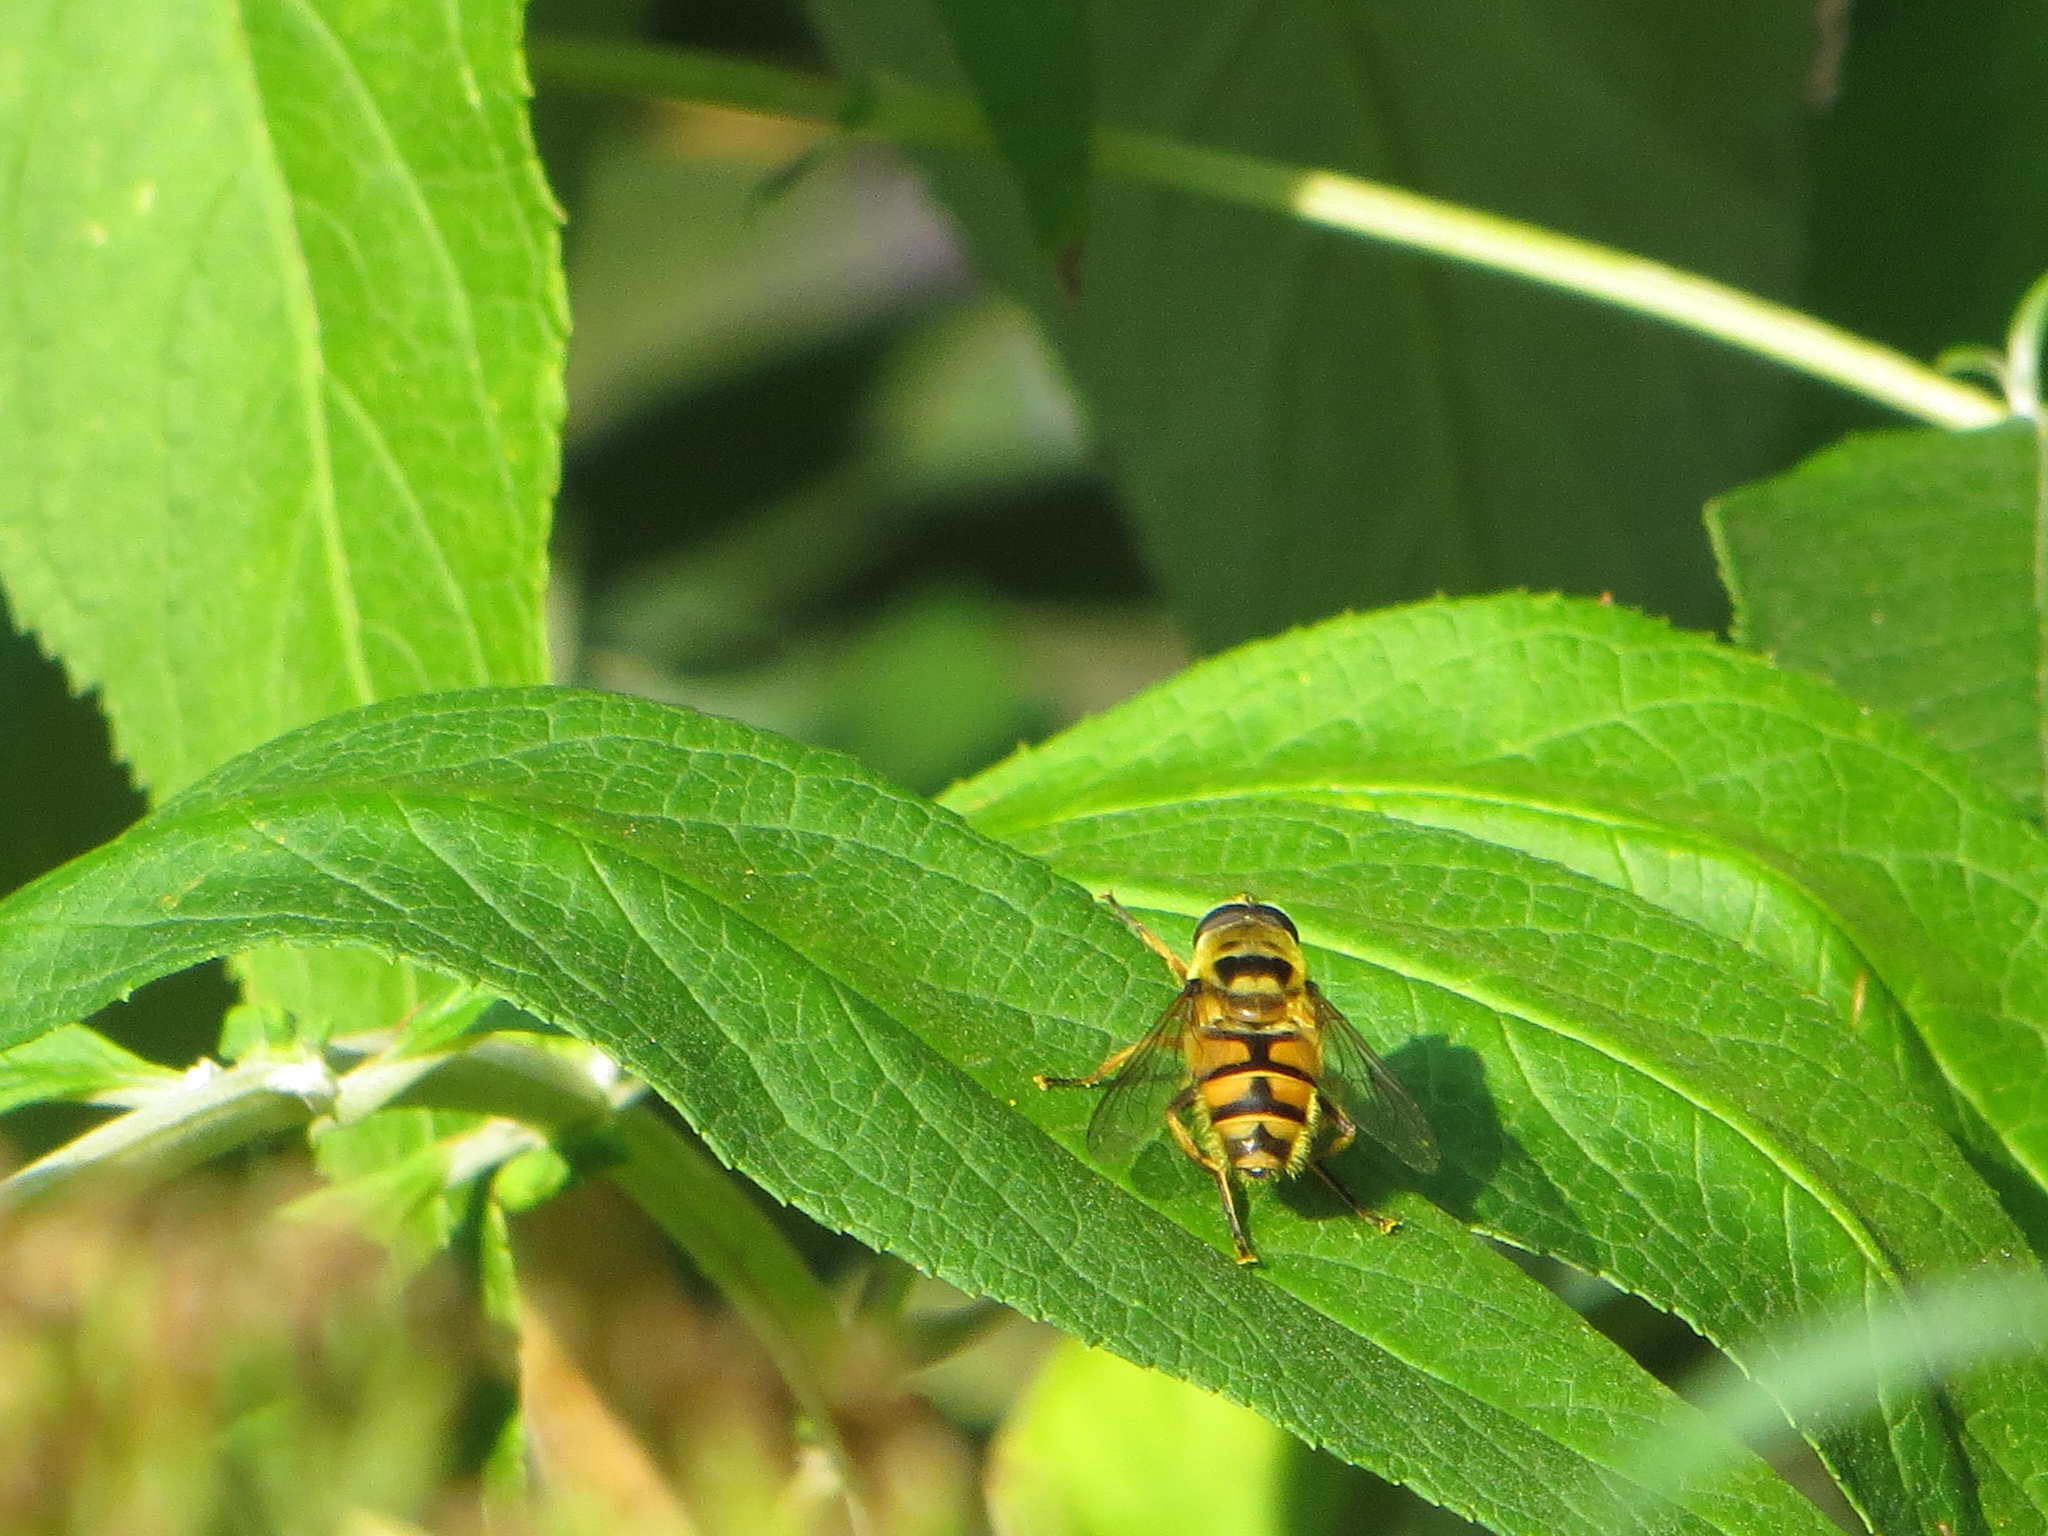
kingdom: Animalia
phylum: Arthropoda
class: Insecta
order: Diptera
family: Syrphidae
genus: Myathropa
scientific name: Myathropa florea
